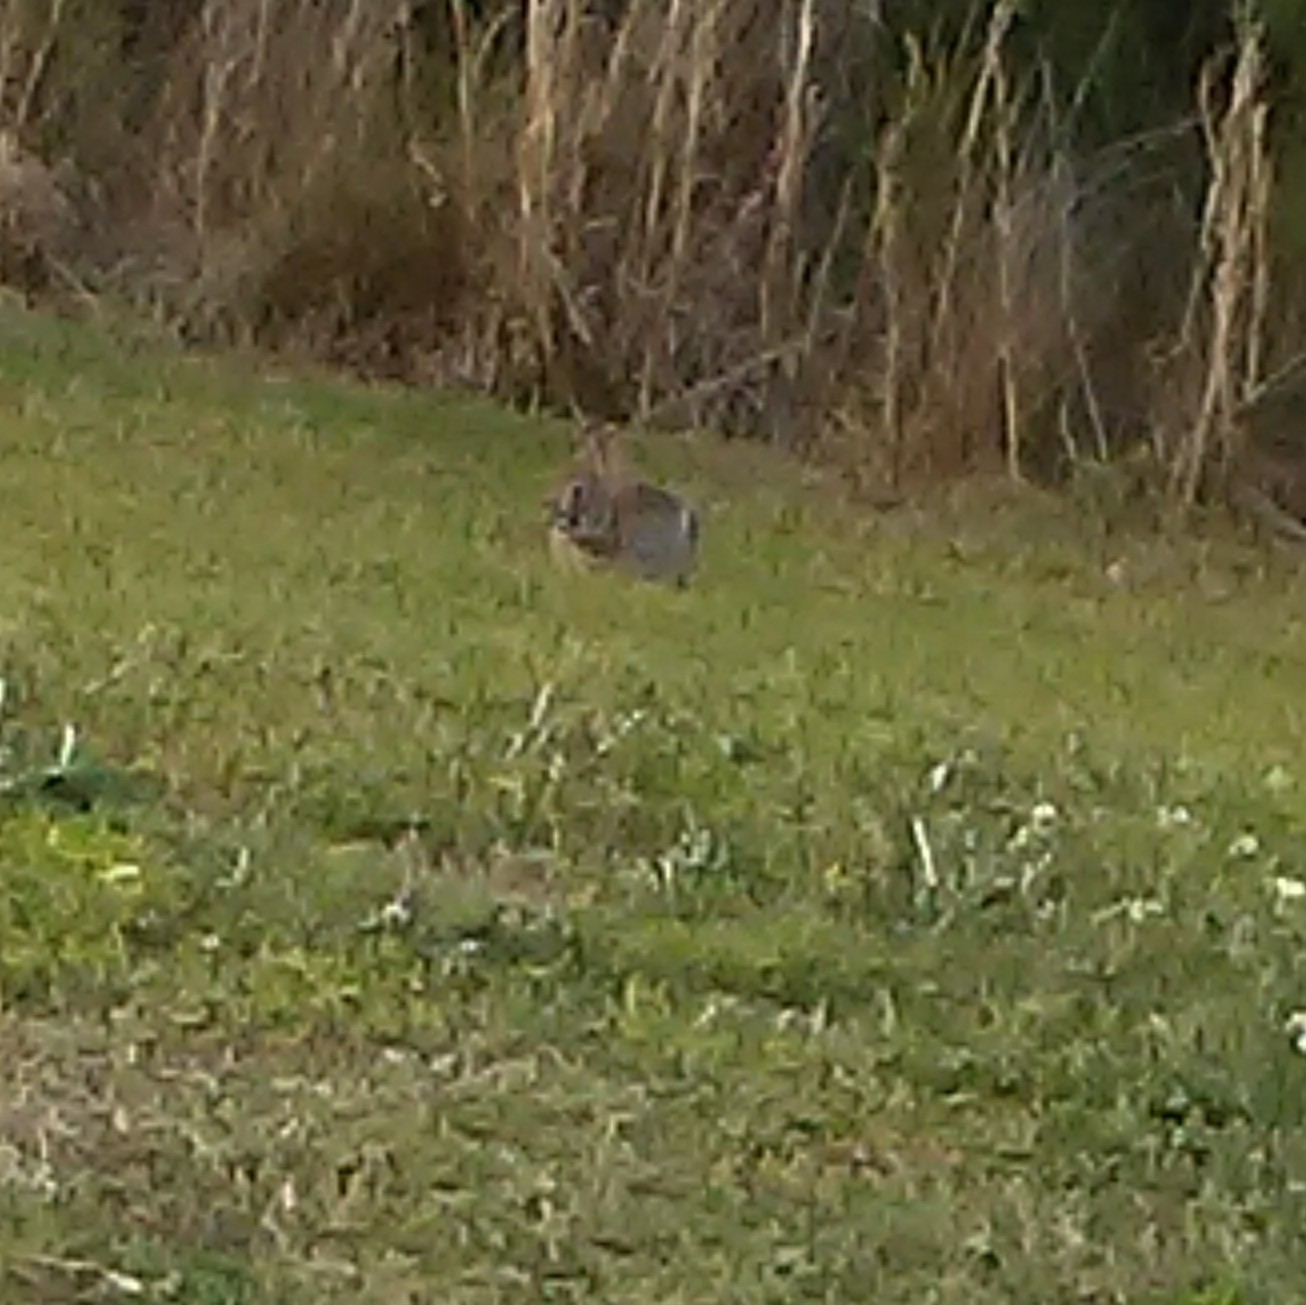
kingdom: Animalia
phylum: Chordata
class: Mammalia
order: Lagomorpha
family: Leporidae
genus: Sylvilagus
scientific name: Sylvilagus floridanus
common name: Eastern cottontail
